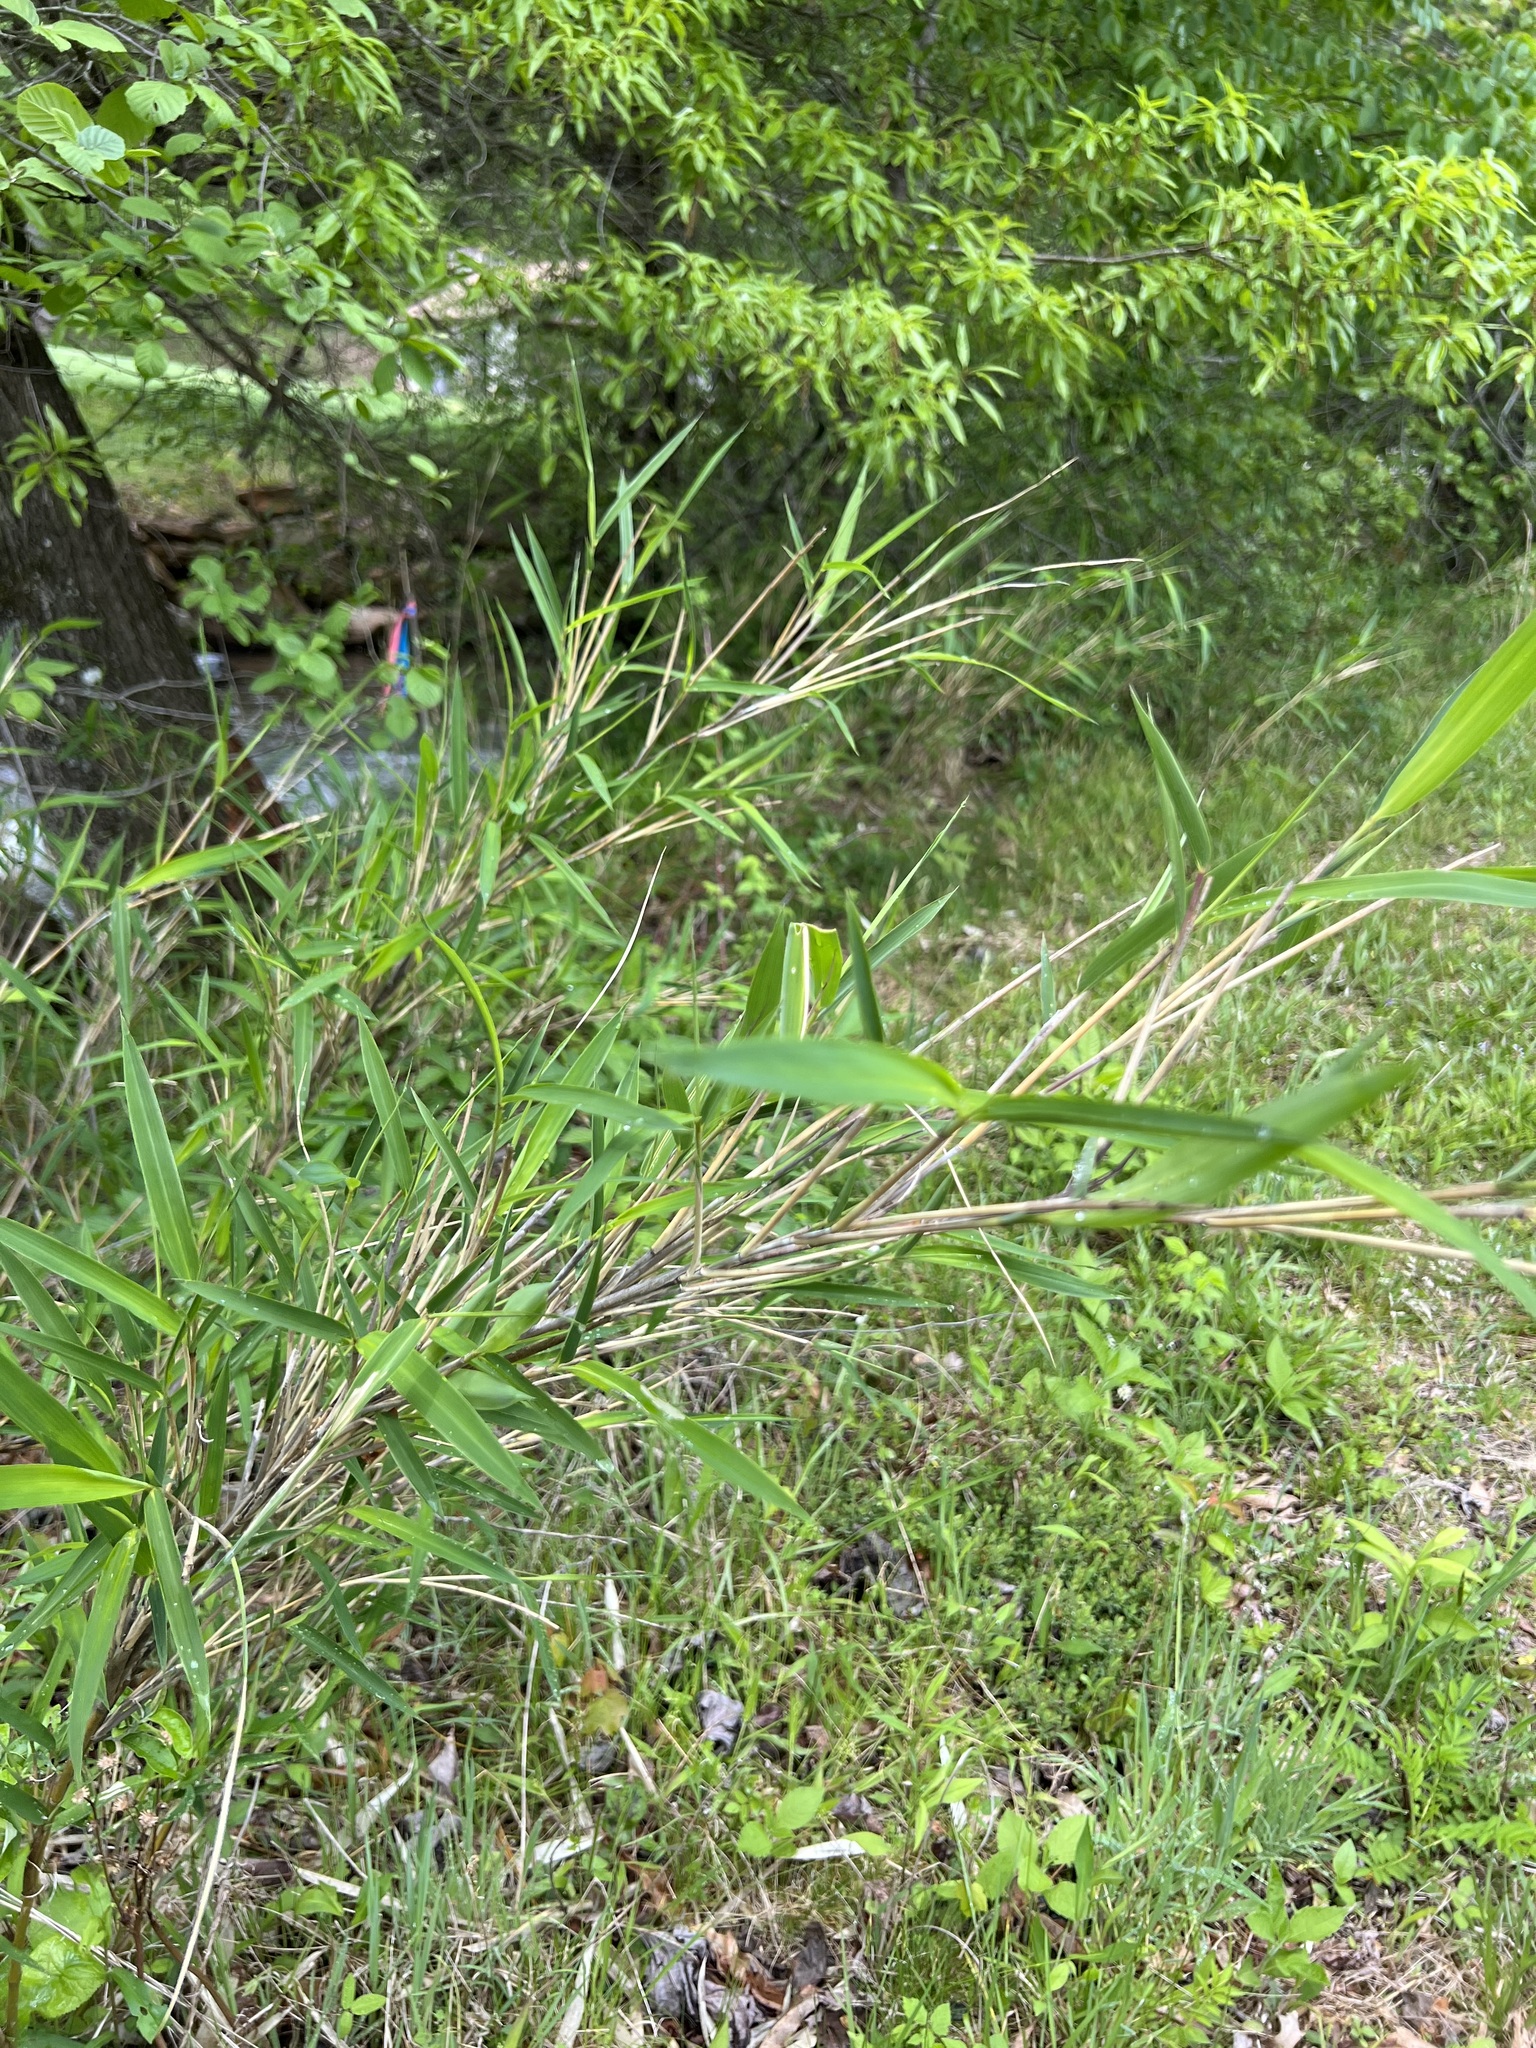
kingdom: Plantae
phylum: Tracheophyta
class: Liliopsida
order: Poales
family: Poaceae
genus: Arundinaria
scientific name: Arundinaria appalachiana
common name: Hill cane
